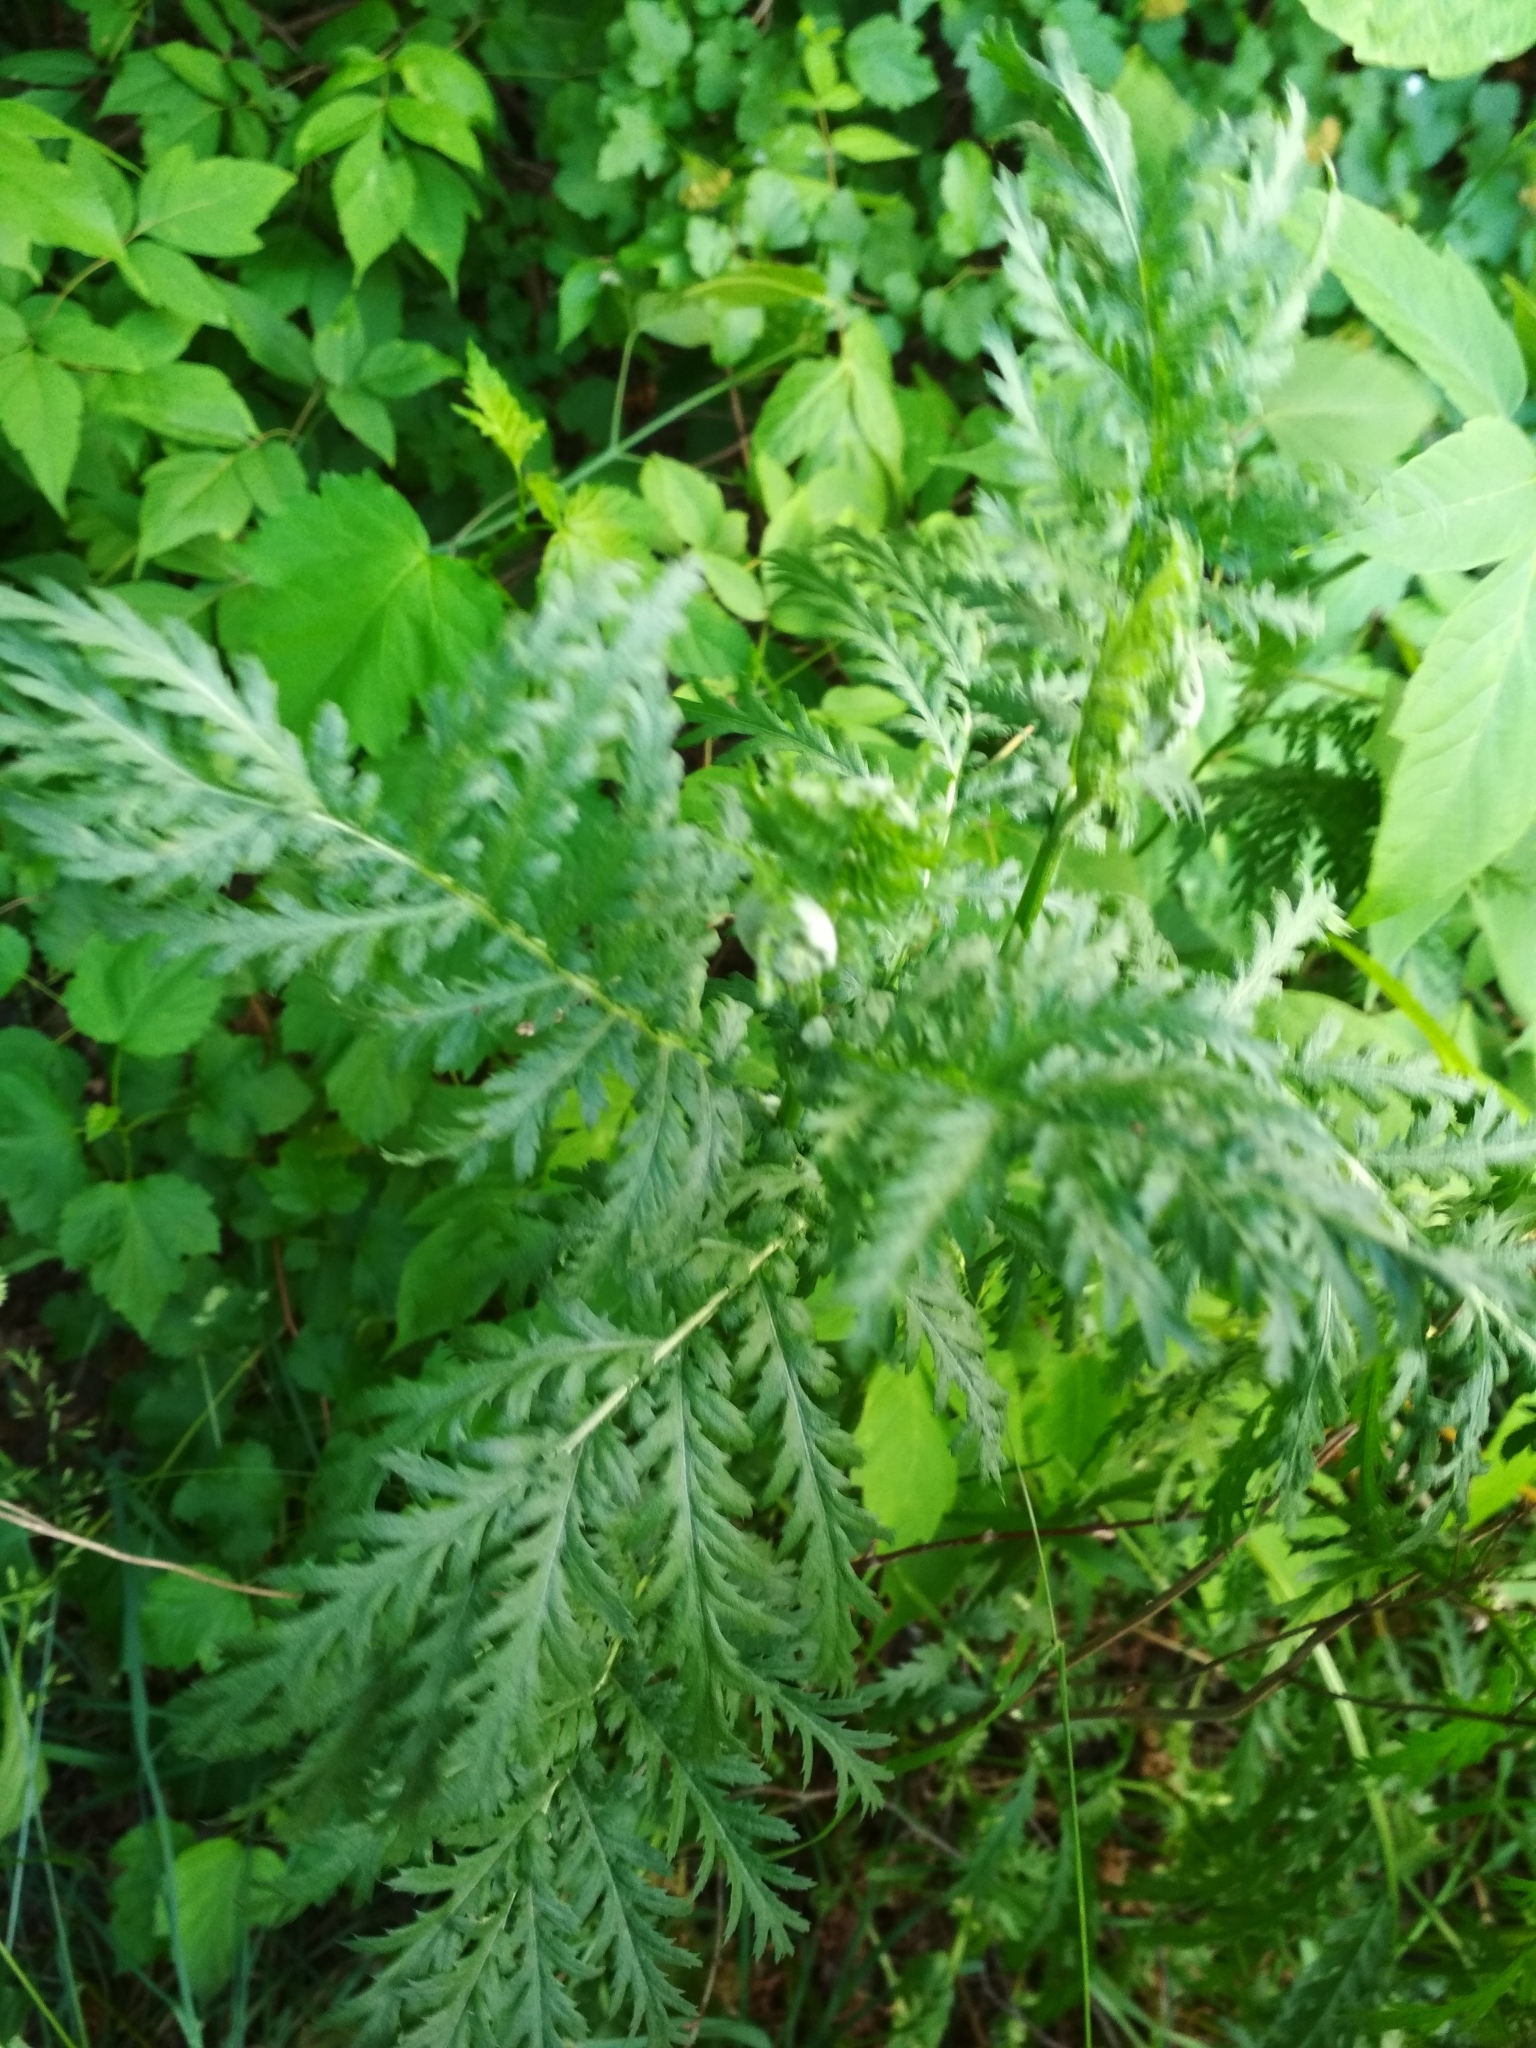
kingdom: Plantae
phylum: Tracheophyta
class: Magnoliopsida
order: Asterales
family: Asteraceae
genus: Tanacetum
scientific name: Tanacetum vulgare
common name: Common tansy
